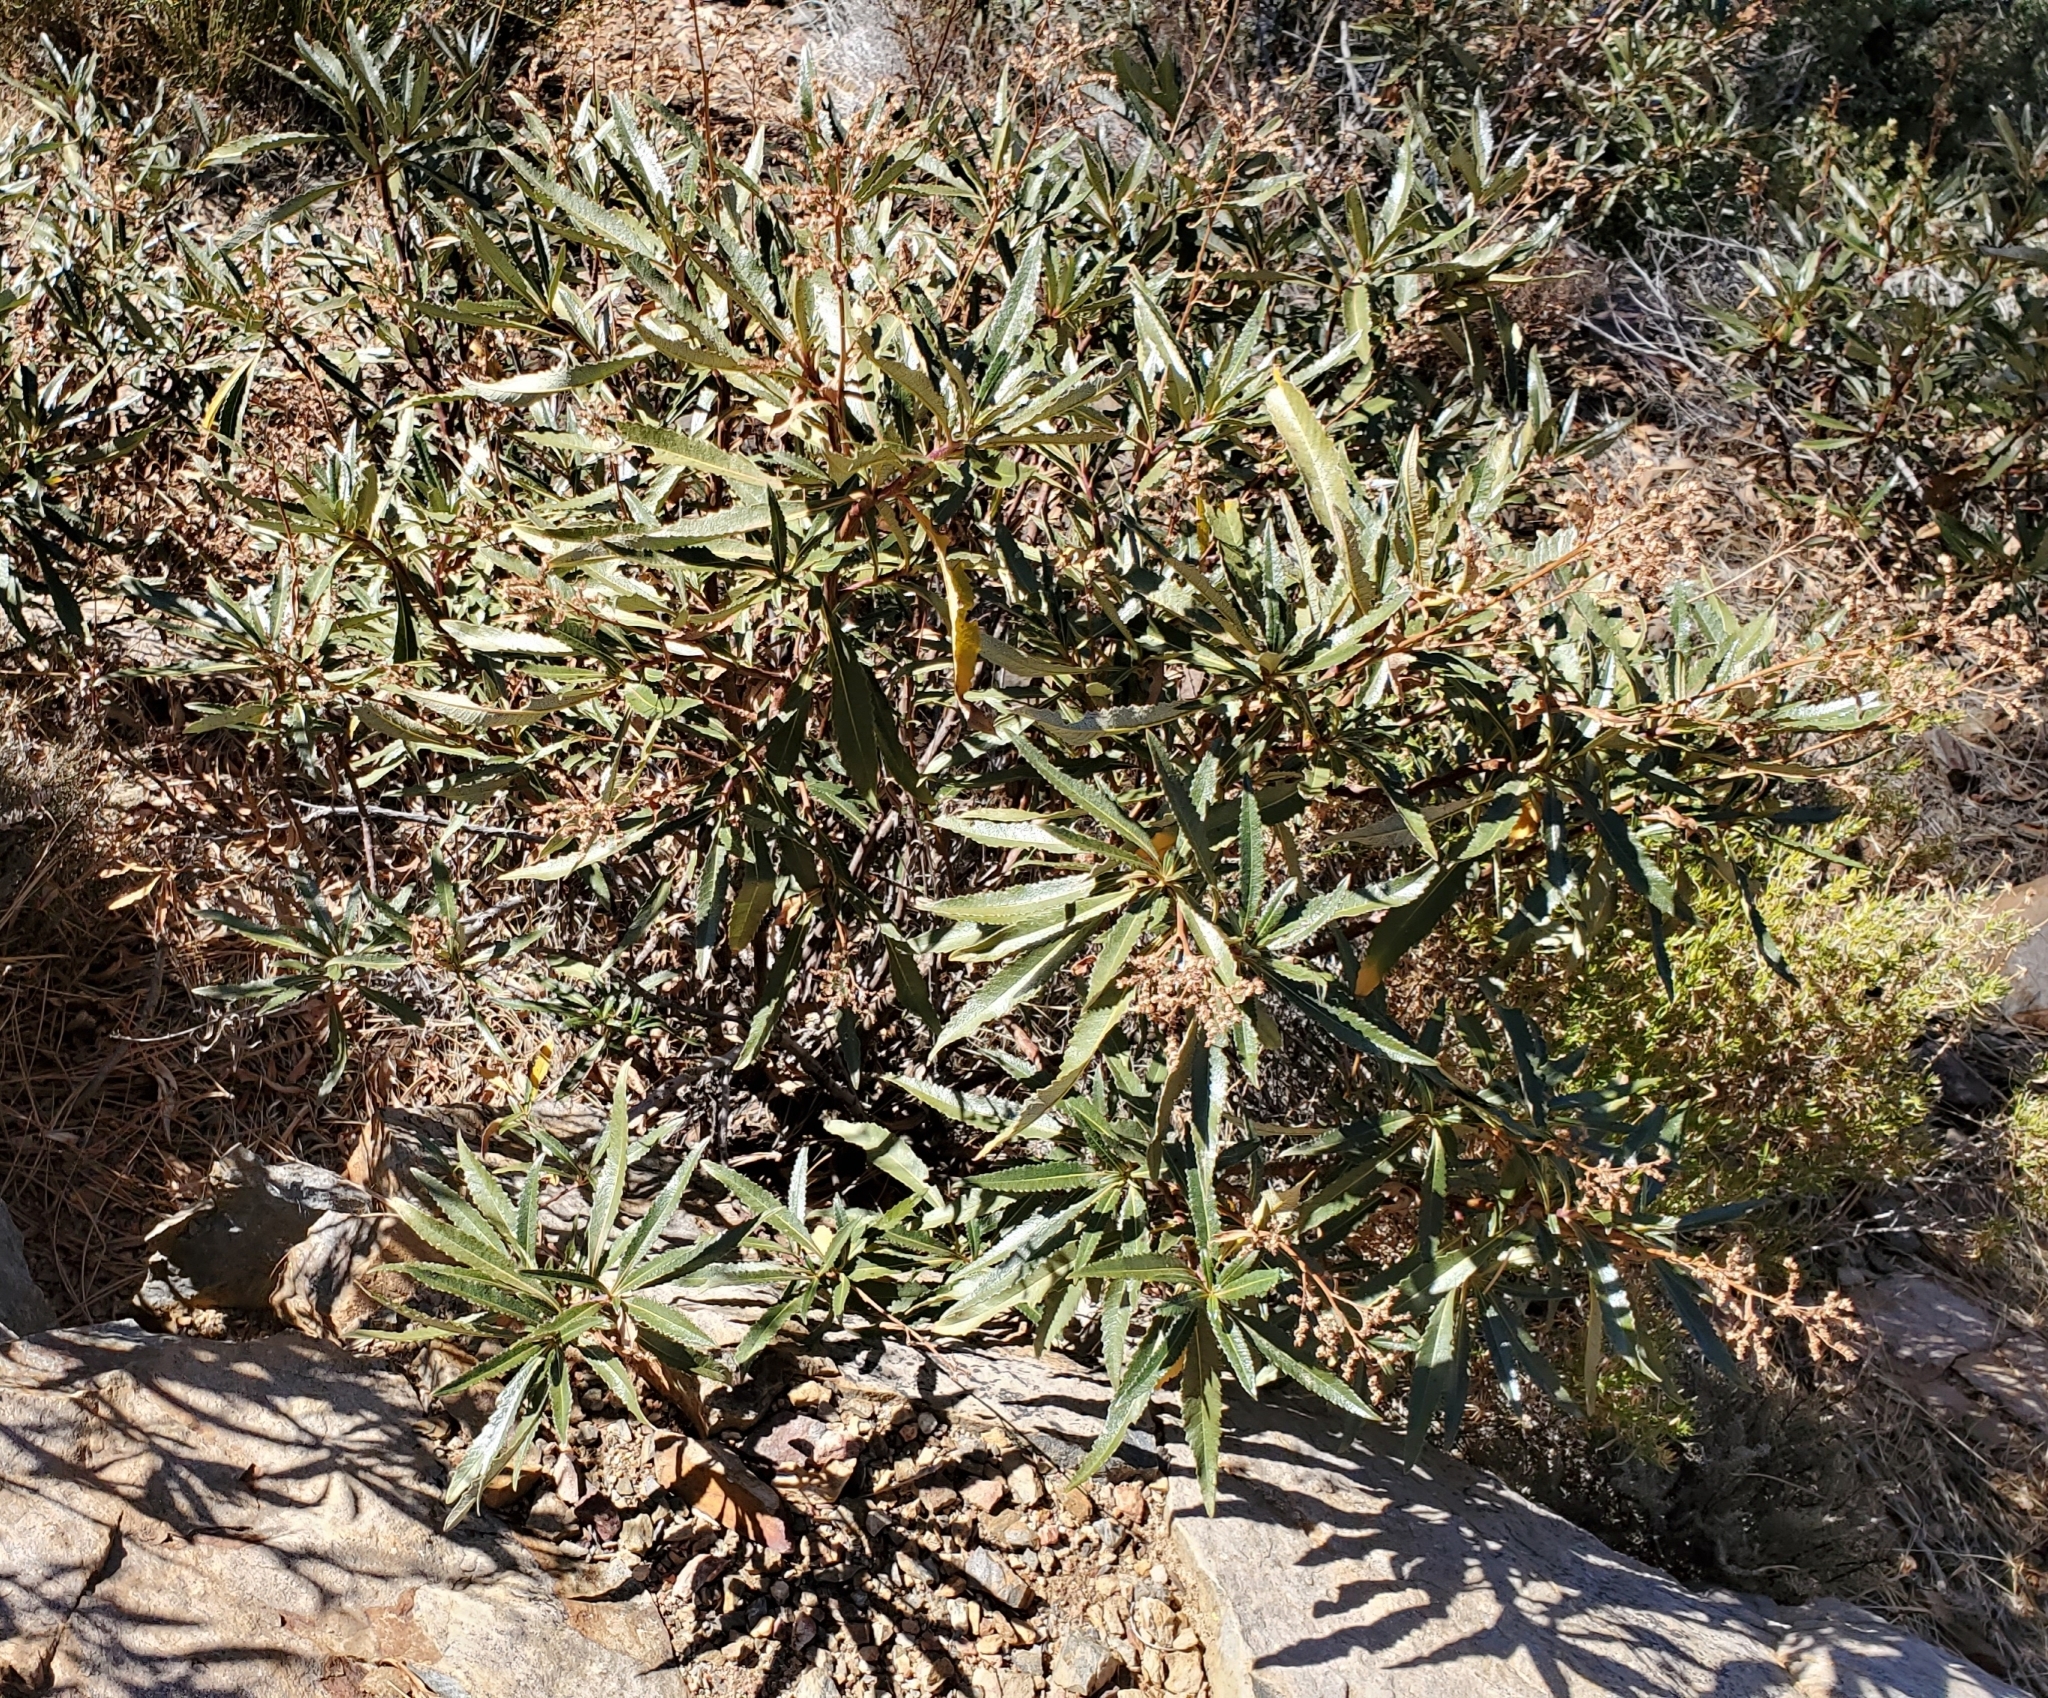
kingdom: Plantae
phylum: Tracheophyta
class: Magnoliopsida
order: Boraginales
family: Namaceae
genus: Eriodictyon
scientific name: Eriodictyon californicum
